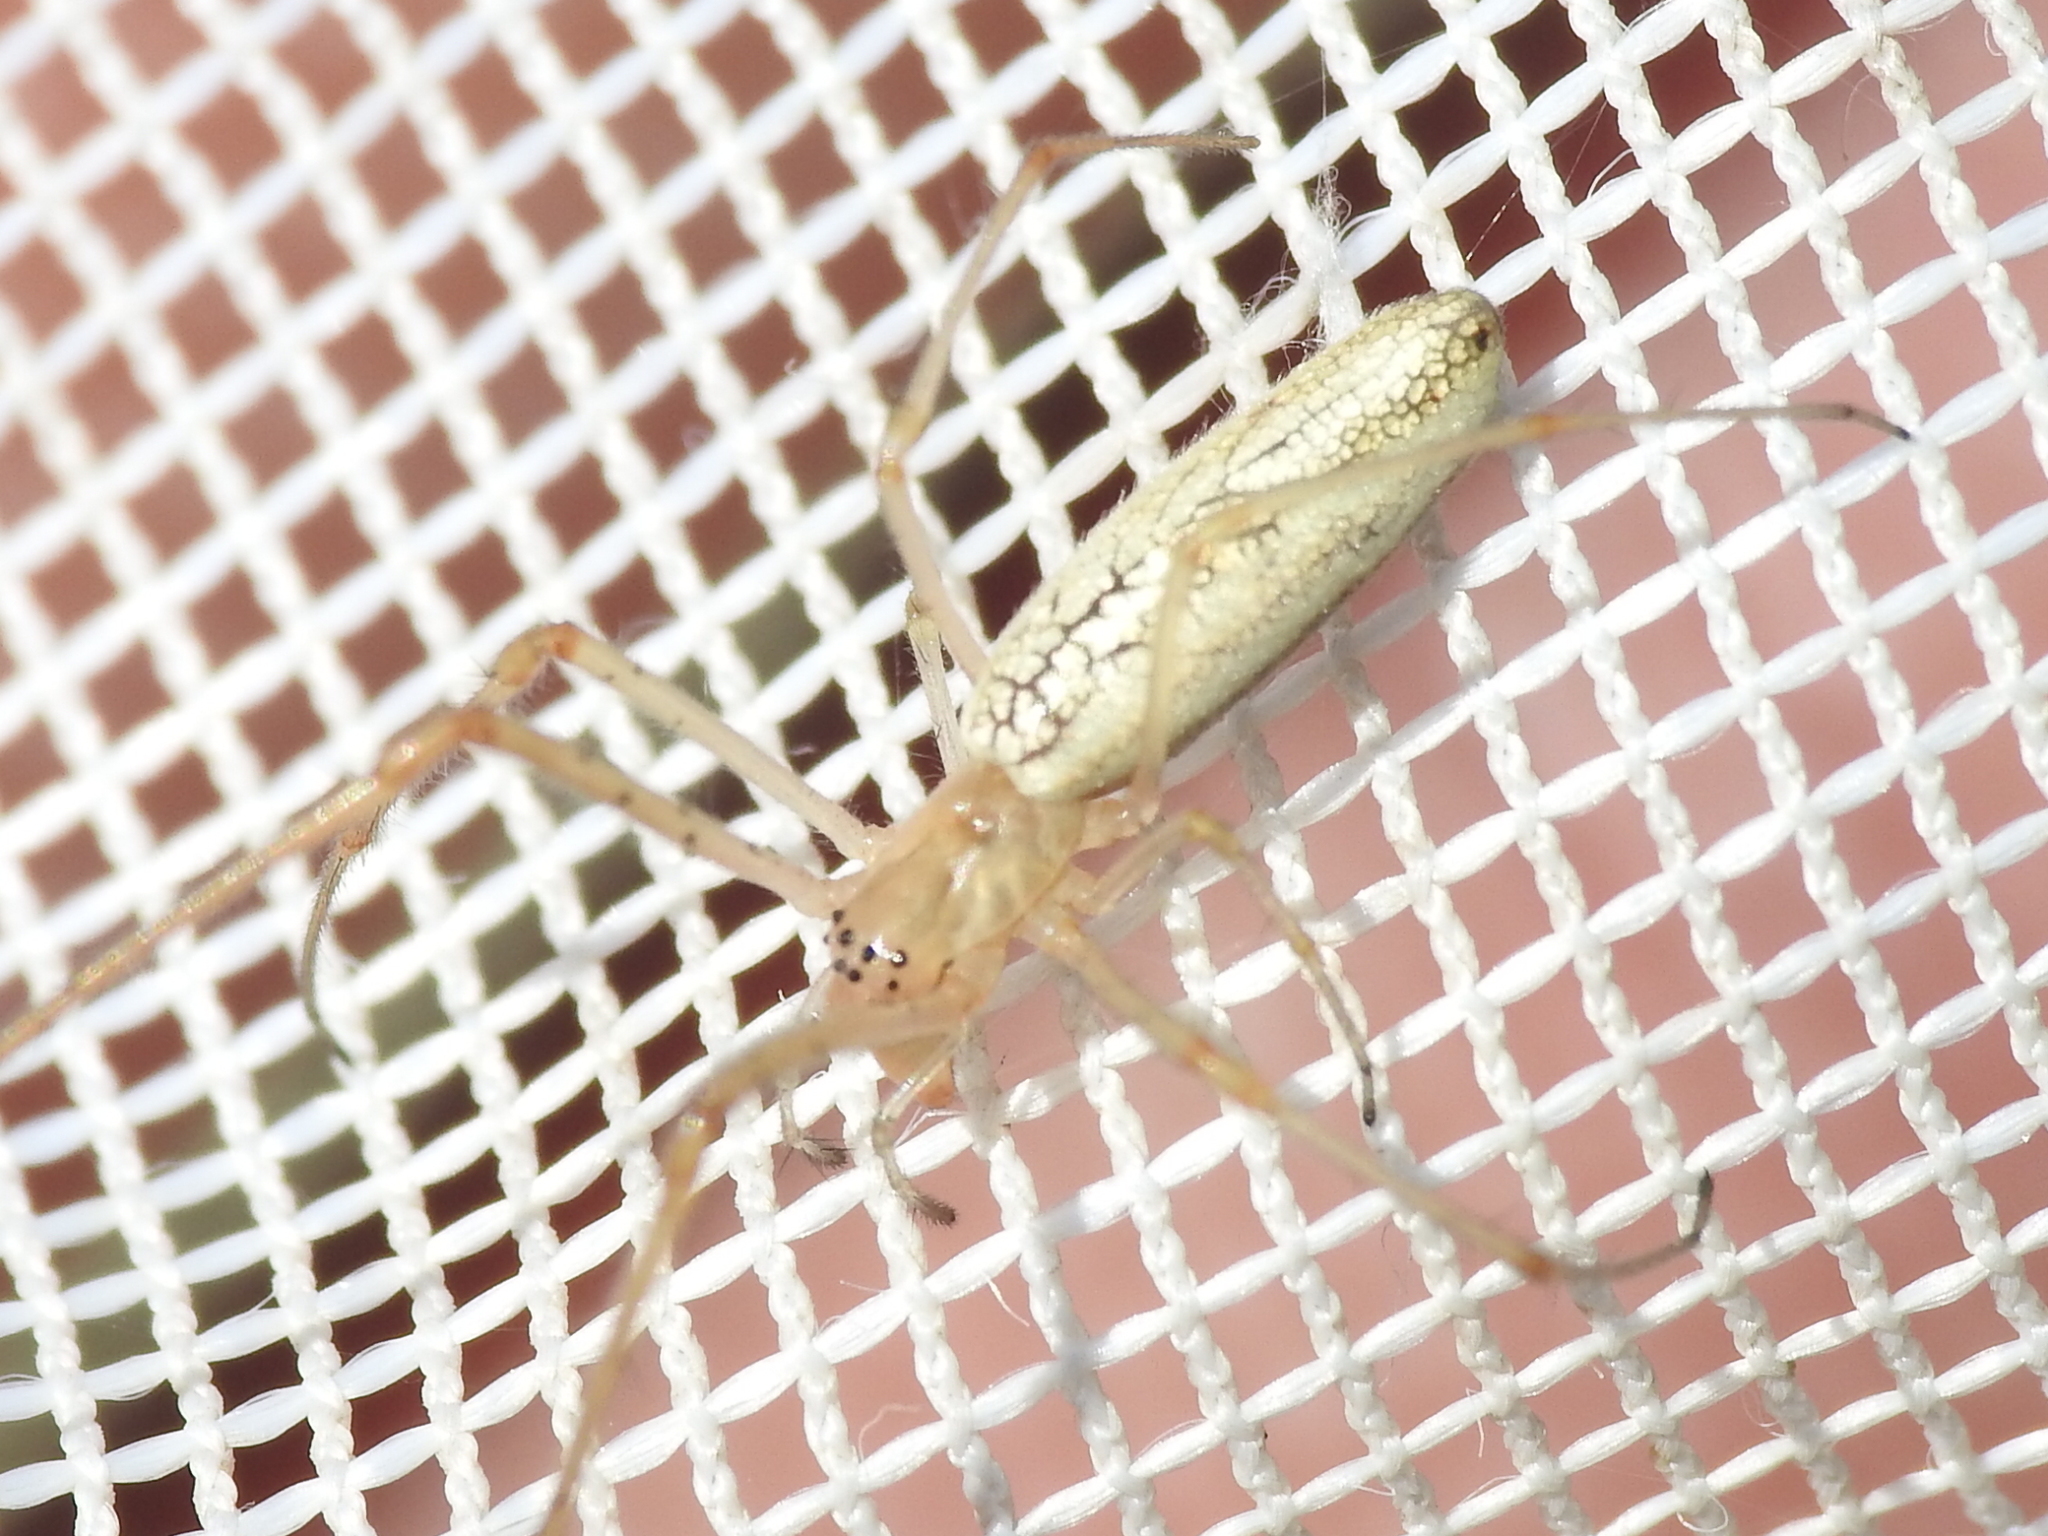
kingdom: Animalia
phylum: Arthropoda
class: Arachnida
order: Araneae
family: Tetragnathidae
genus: Tetragnatha
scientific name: Tetragnatha
